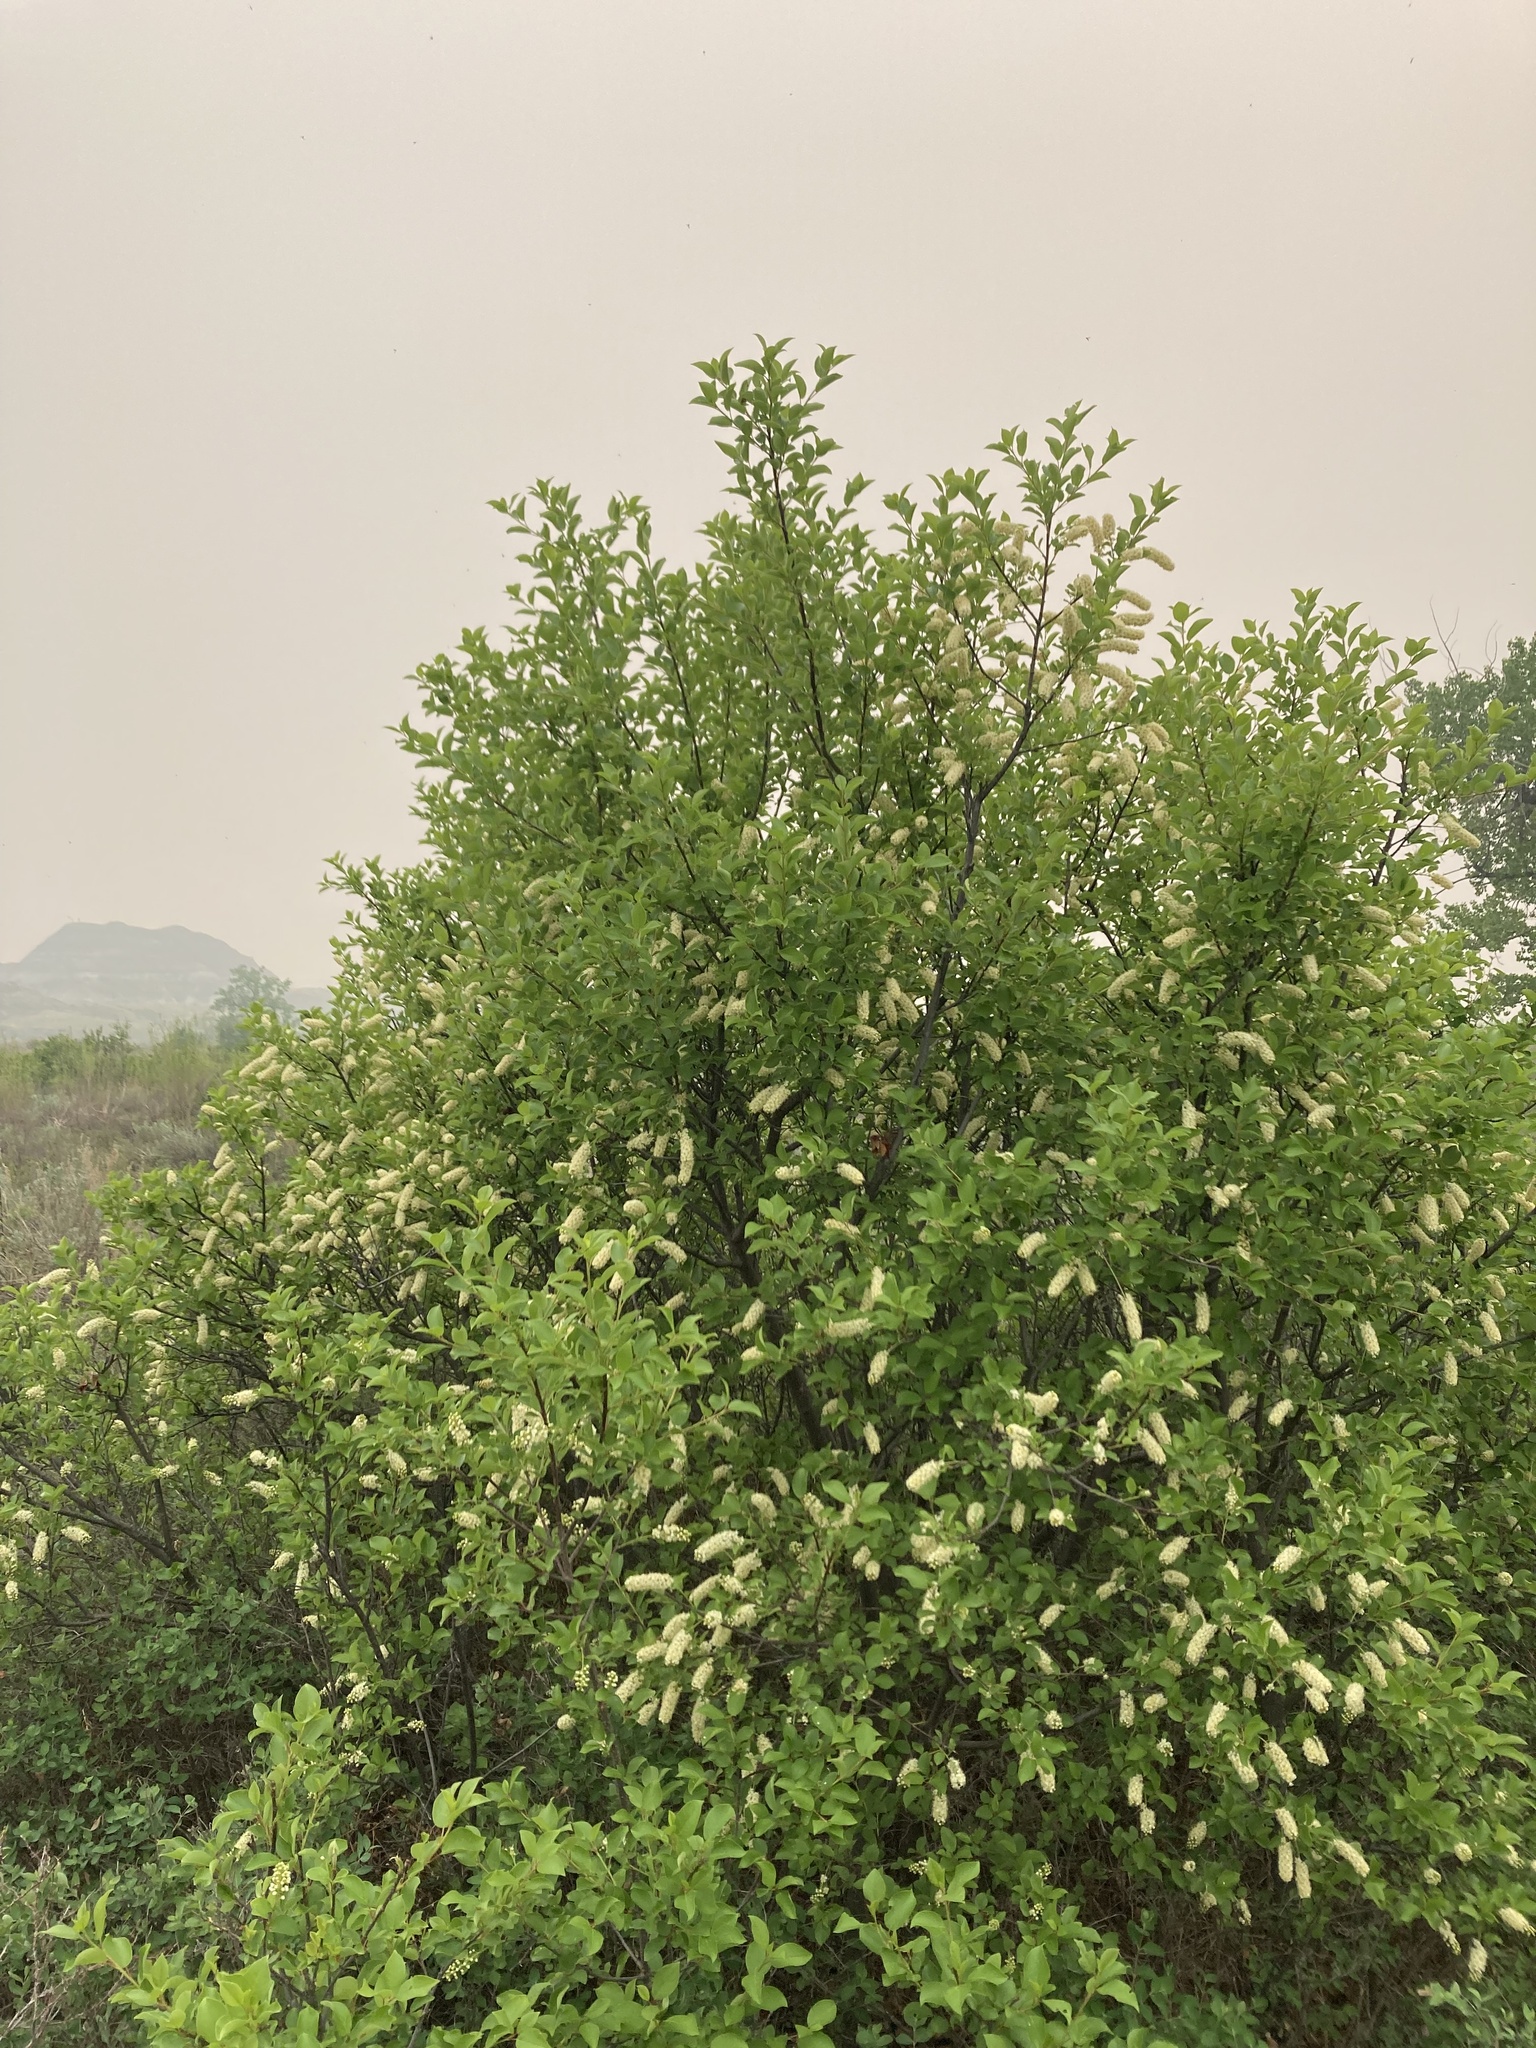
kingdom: Plantae
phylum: Tracheophyta
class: Magnoliopsida
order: Rosales
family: Rosaceae
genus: Prunus
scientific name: Prunus virginiana
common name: Chokecherry
